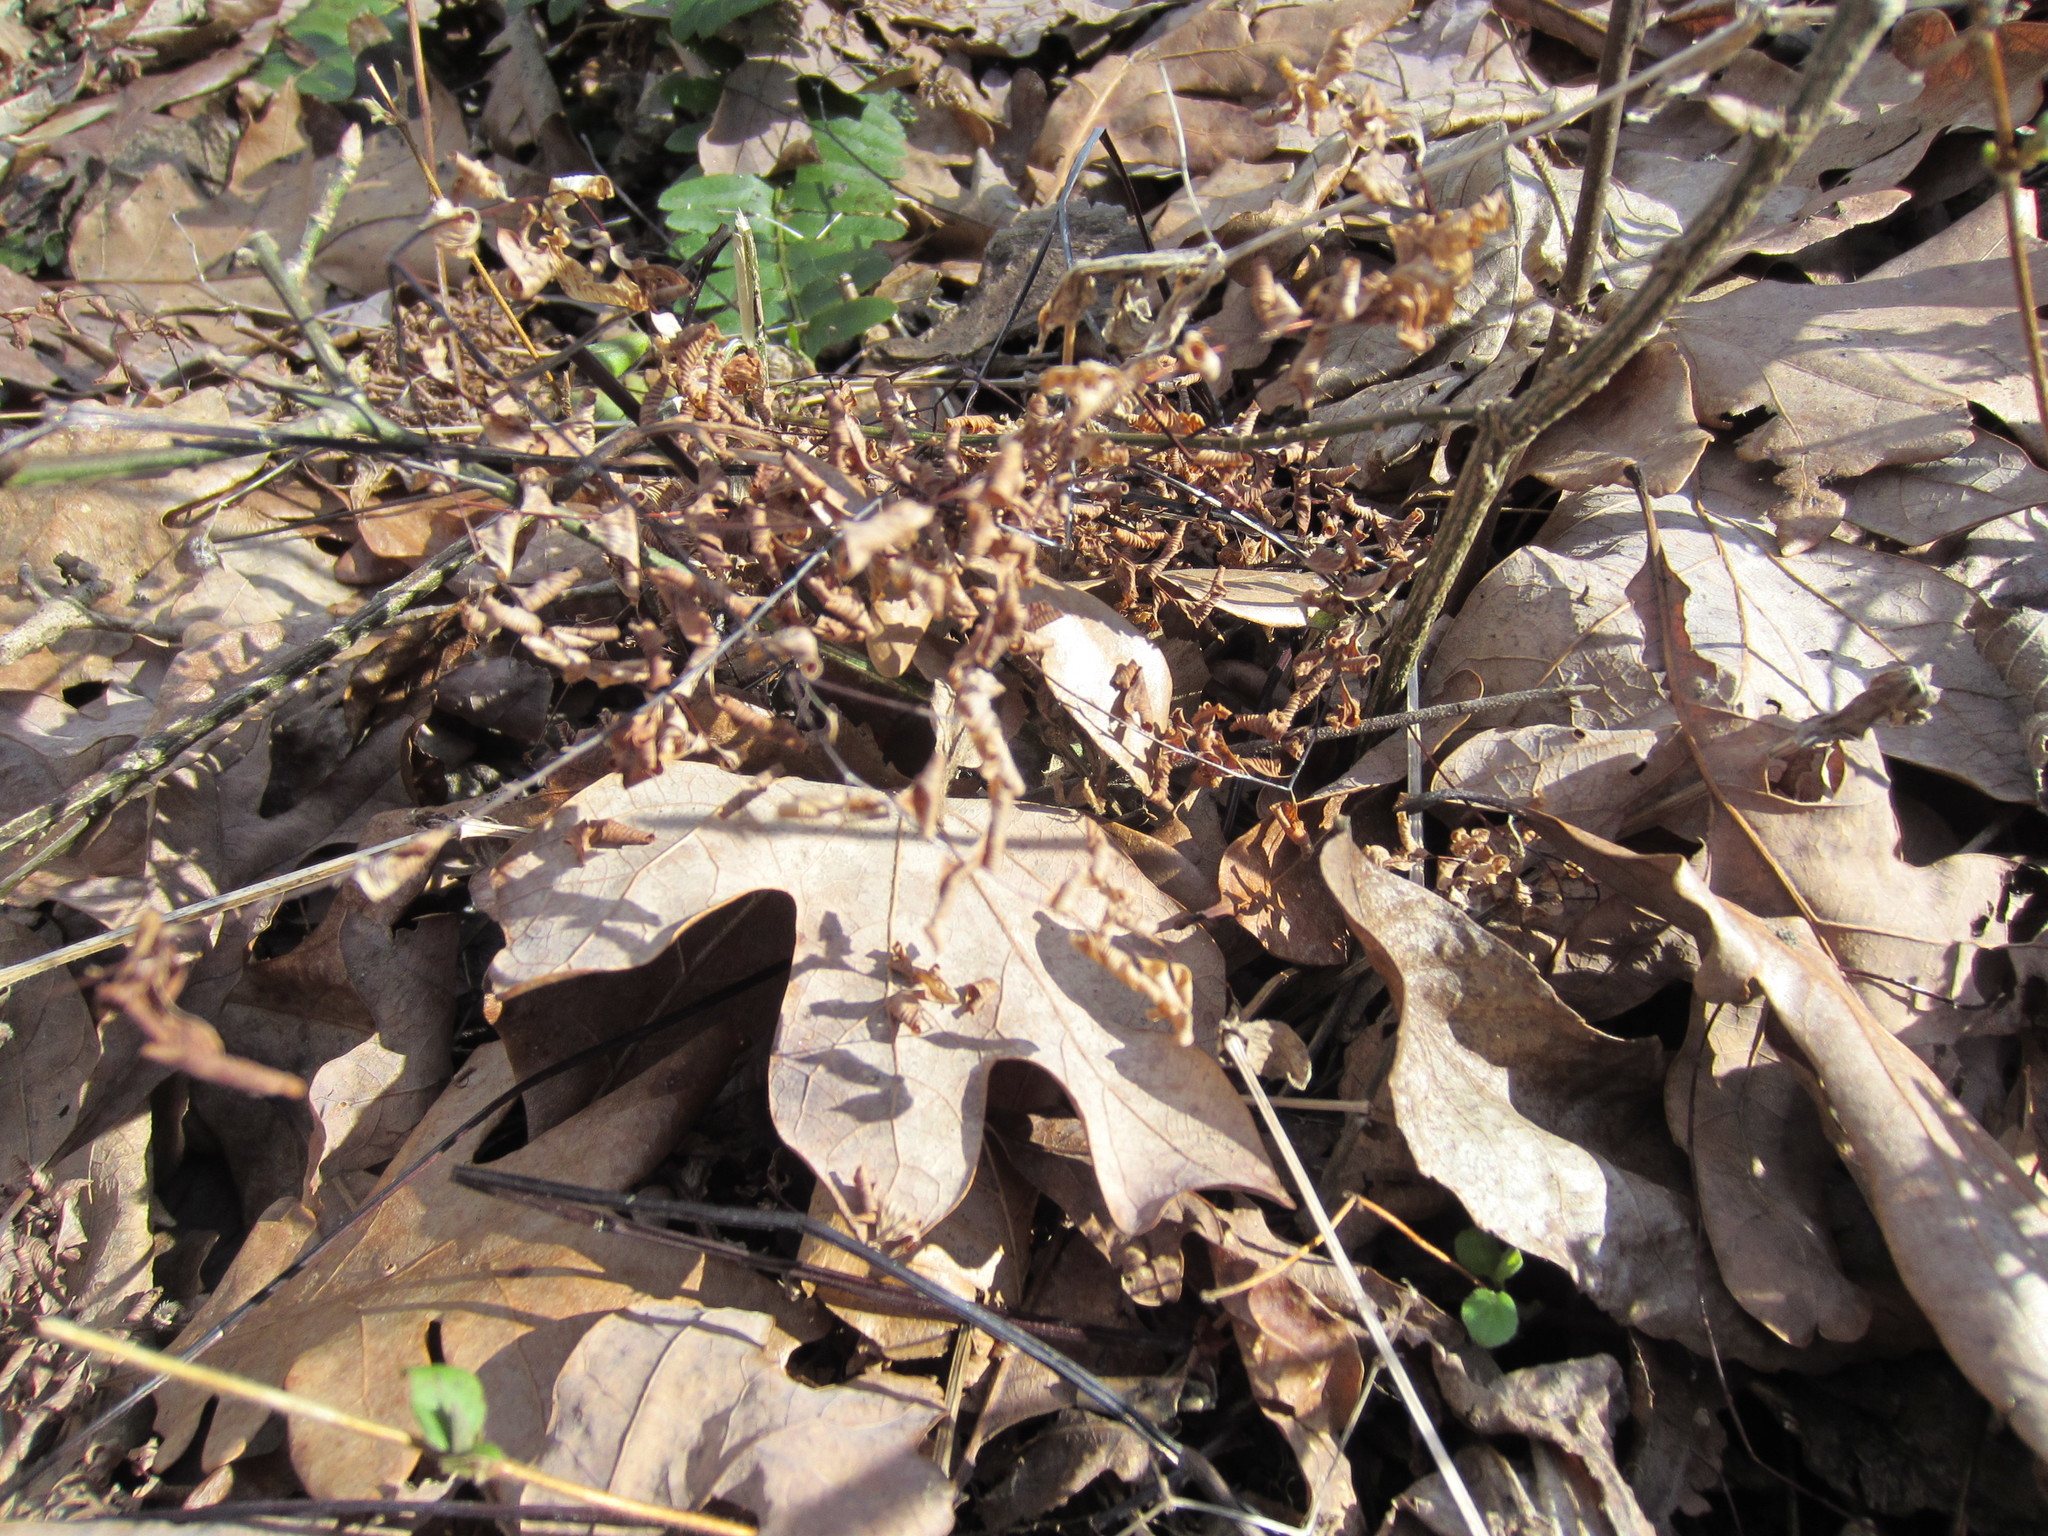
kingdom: Plantae
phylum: Tracheophyta
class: Polypodiopsida
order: Polypodiales
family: Pteridaceae
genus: Adiantum
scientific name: Adiantum pedatum
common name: Five-finger fern
